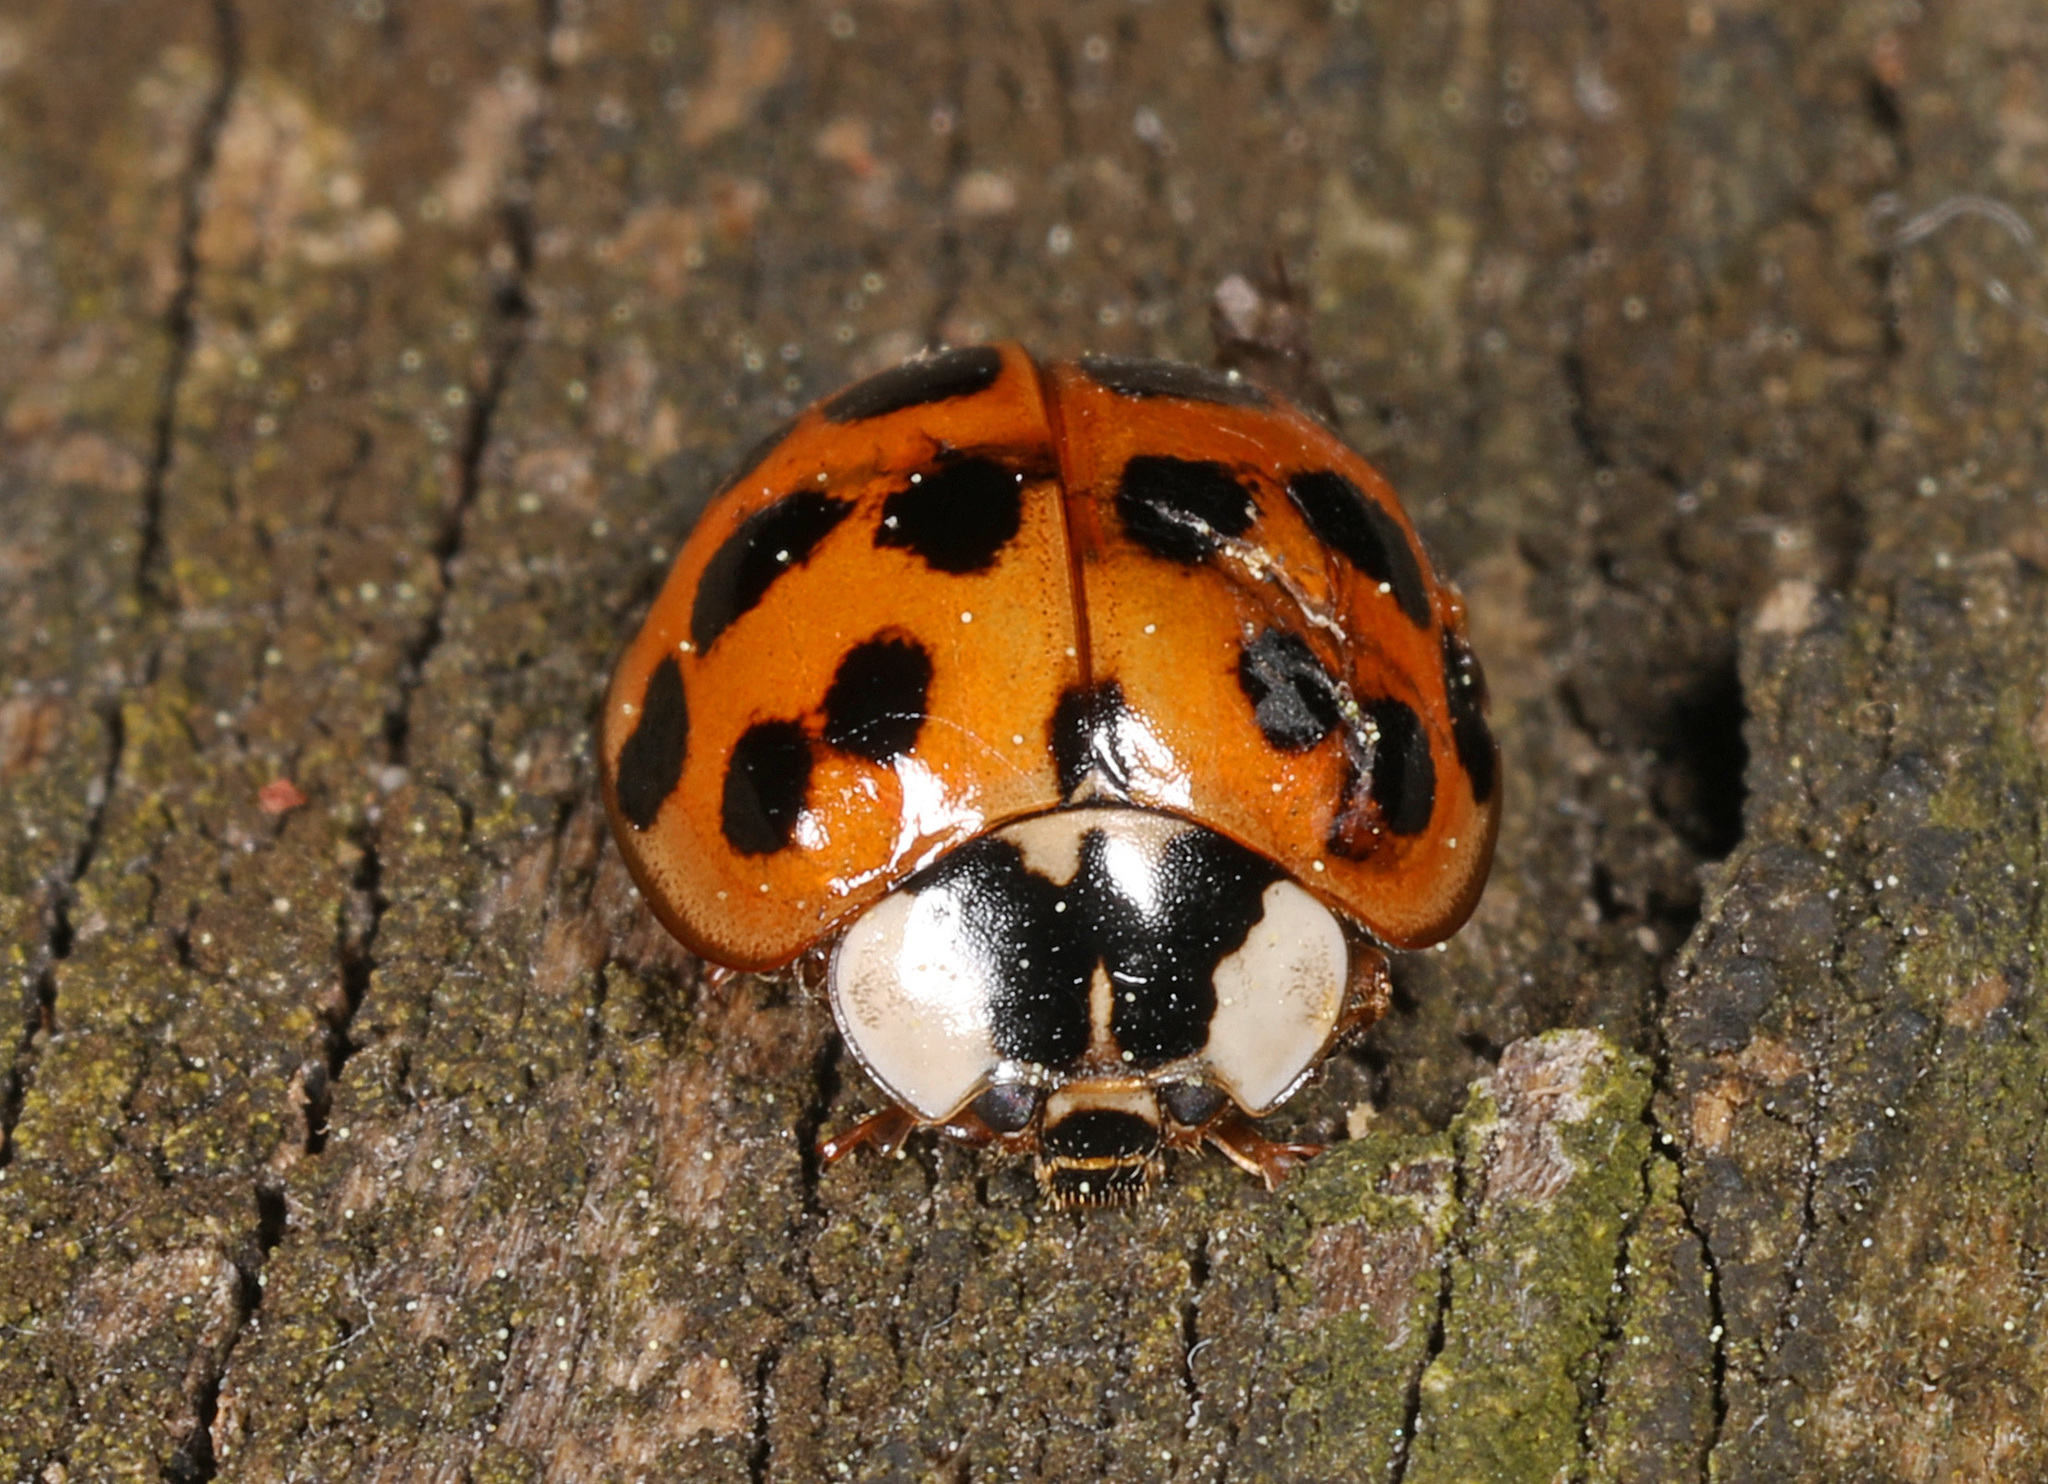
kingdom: Animalia
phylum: Arthropoda
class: Insecta
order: Coleoptera
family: Coccinellidae
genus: Harmonia
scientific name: Harmonia axyridis
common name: Harlequin ladybird
